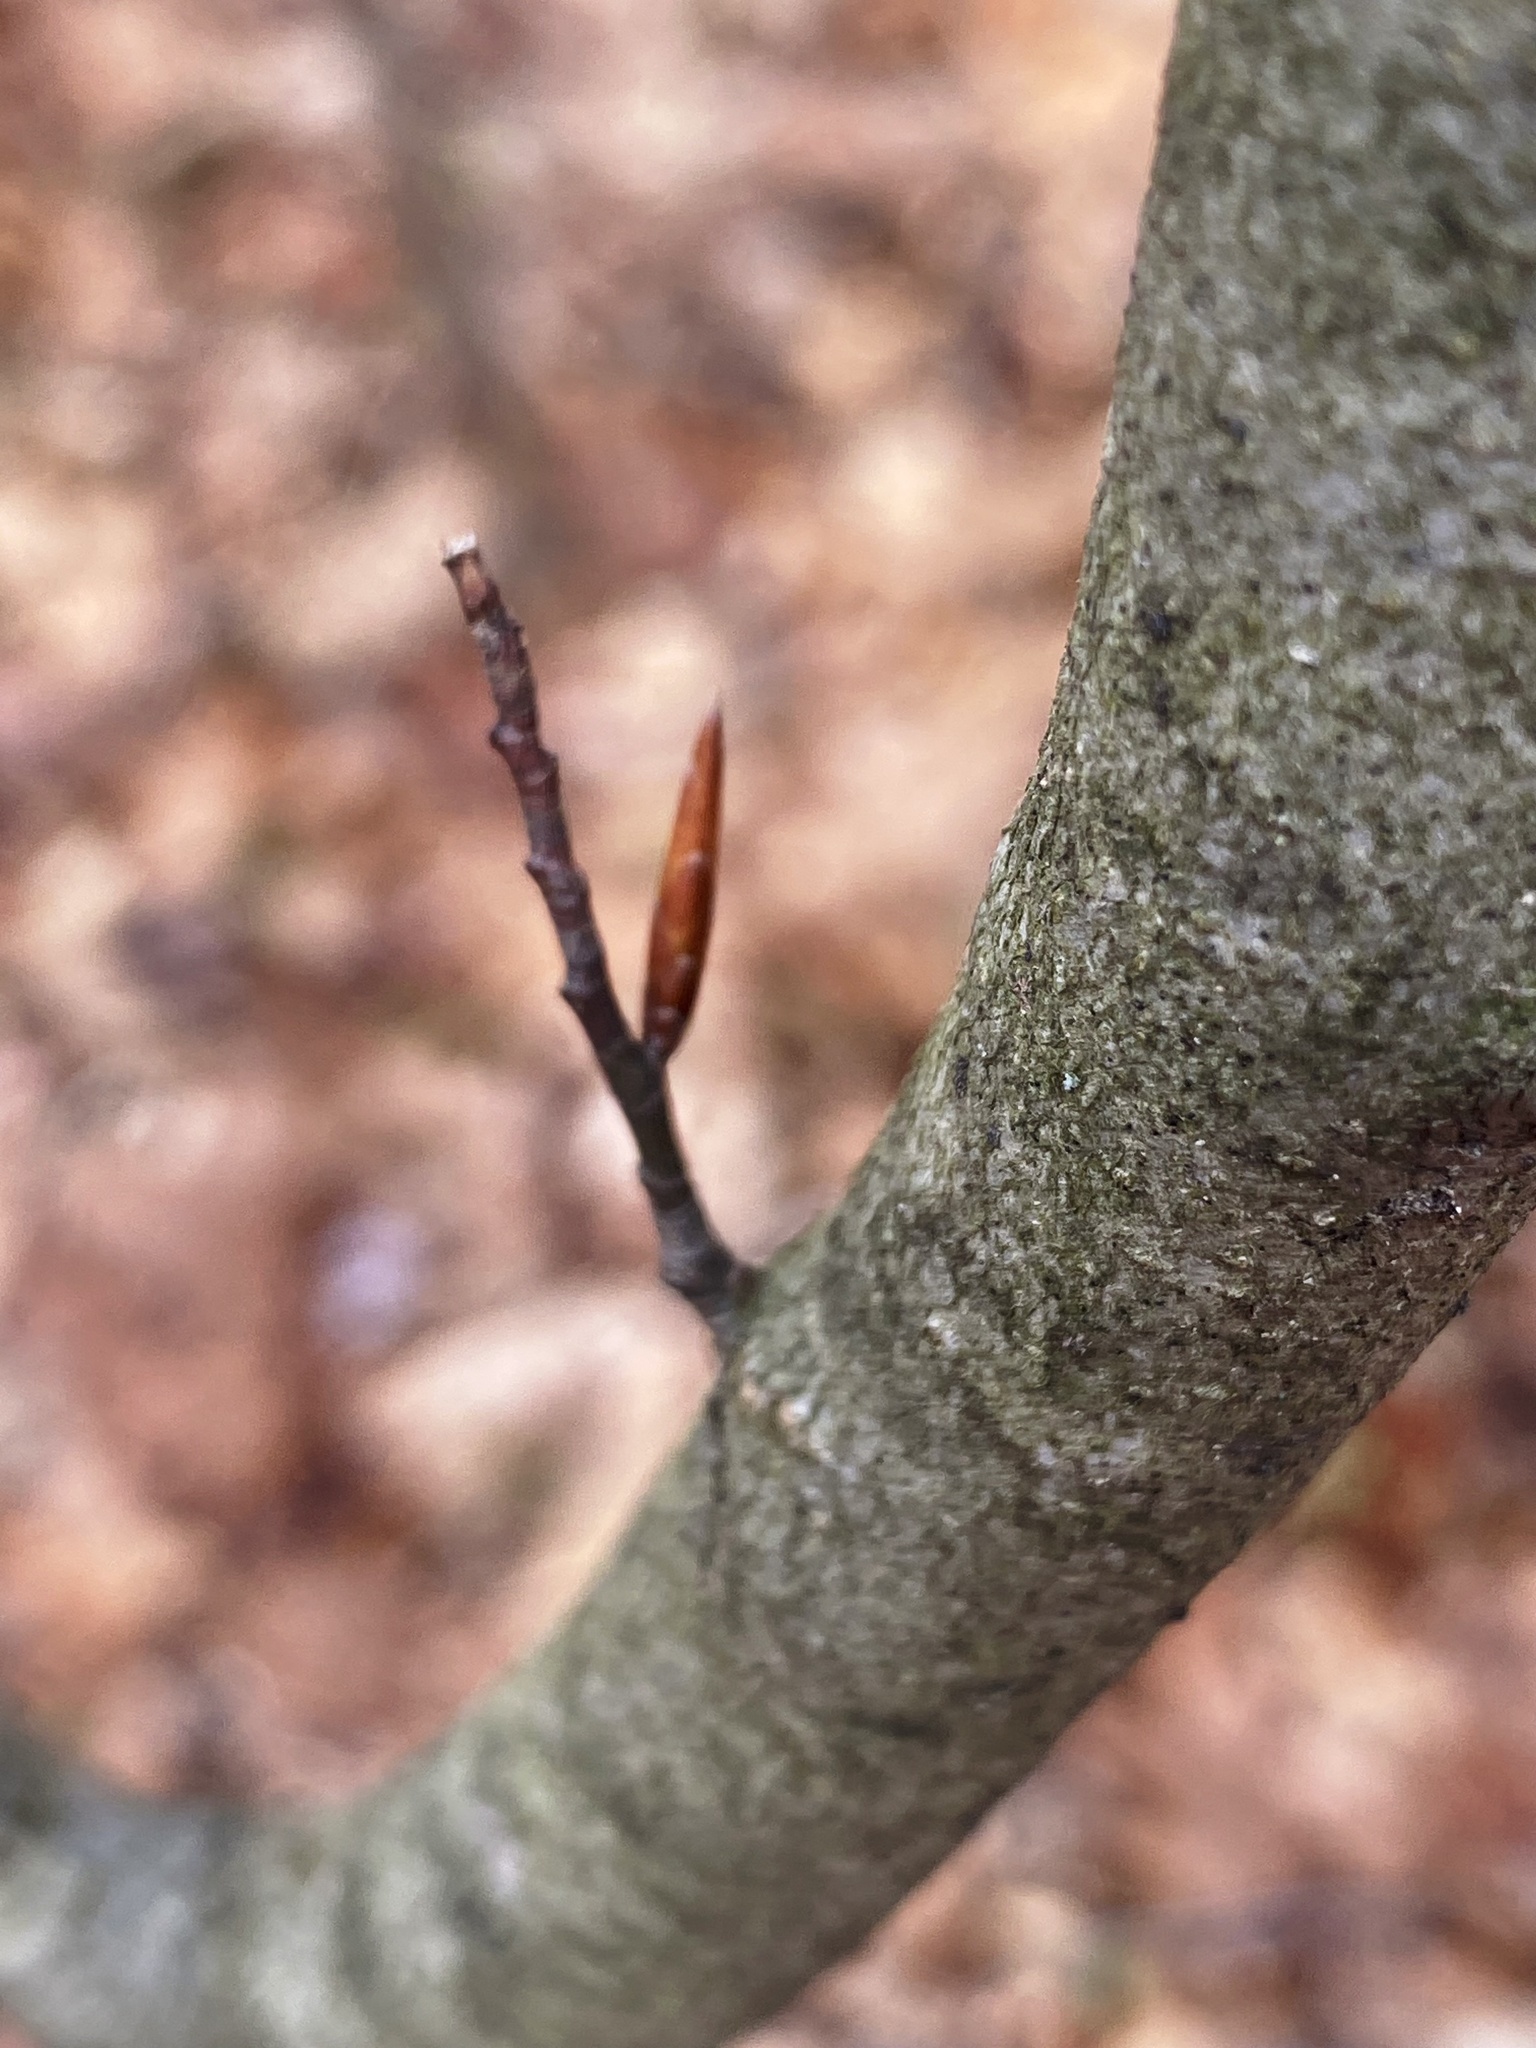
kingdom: Plantae
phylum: Tracheophyta
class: Magnoliopsida
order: Fagales
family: Fagaceae
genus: Fagus
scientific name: Fagus grandifolia
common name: American beech
